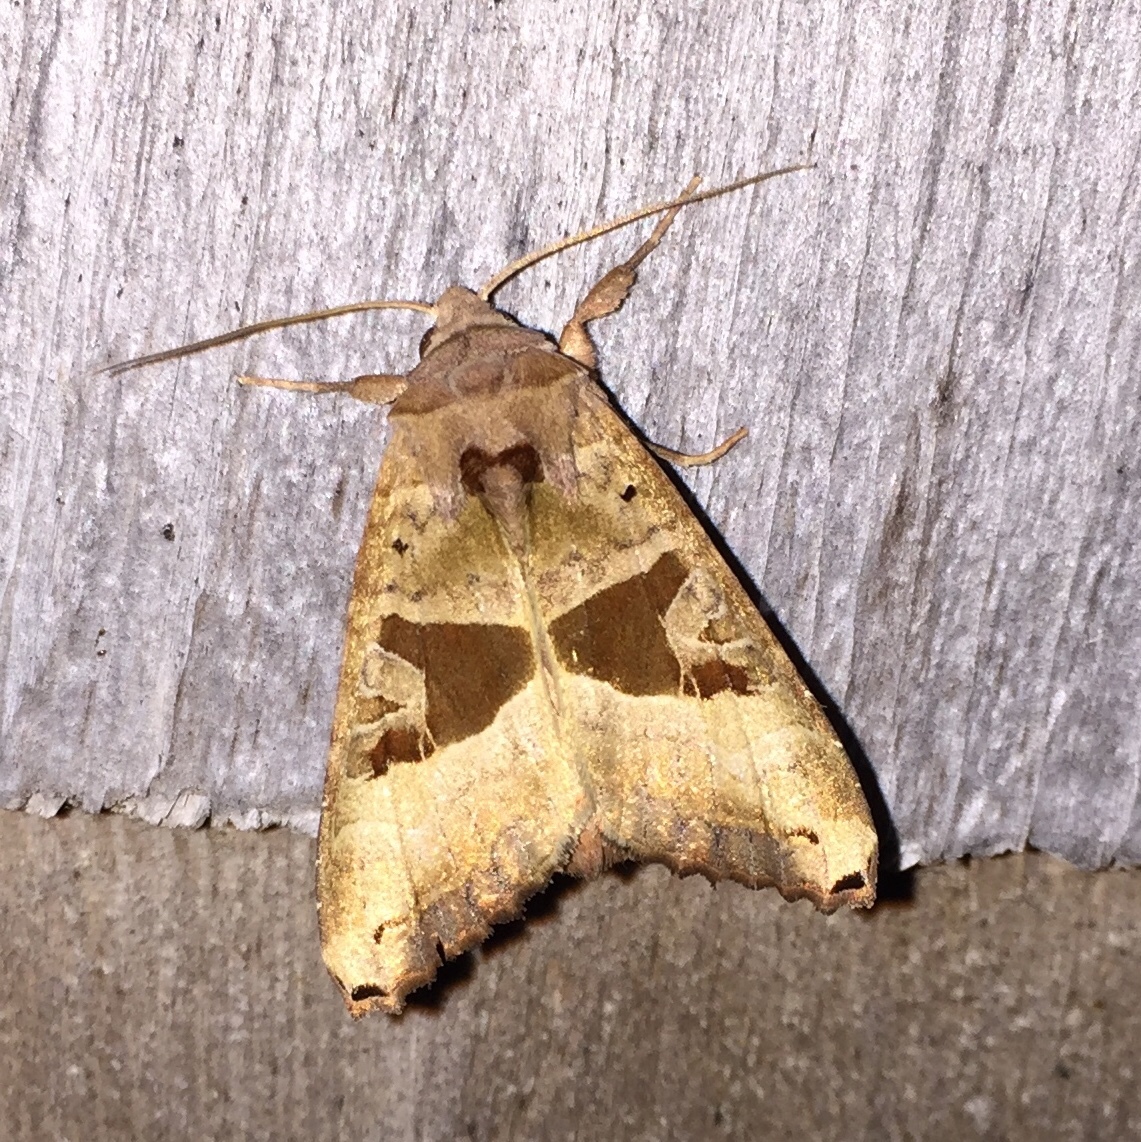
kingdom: Animalia
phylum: Arthropoda
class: Insecta
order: Lepidoptera
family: Noctuidae
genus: Phlogophora
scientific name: Phlogophora periculosa
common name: Brown angle shades
